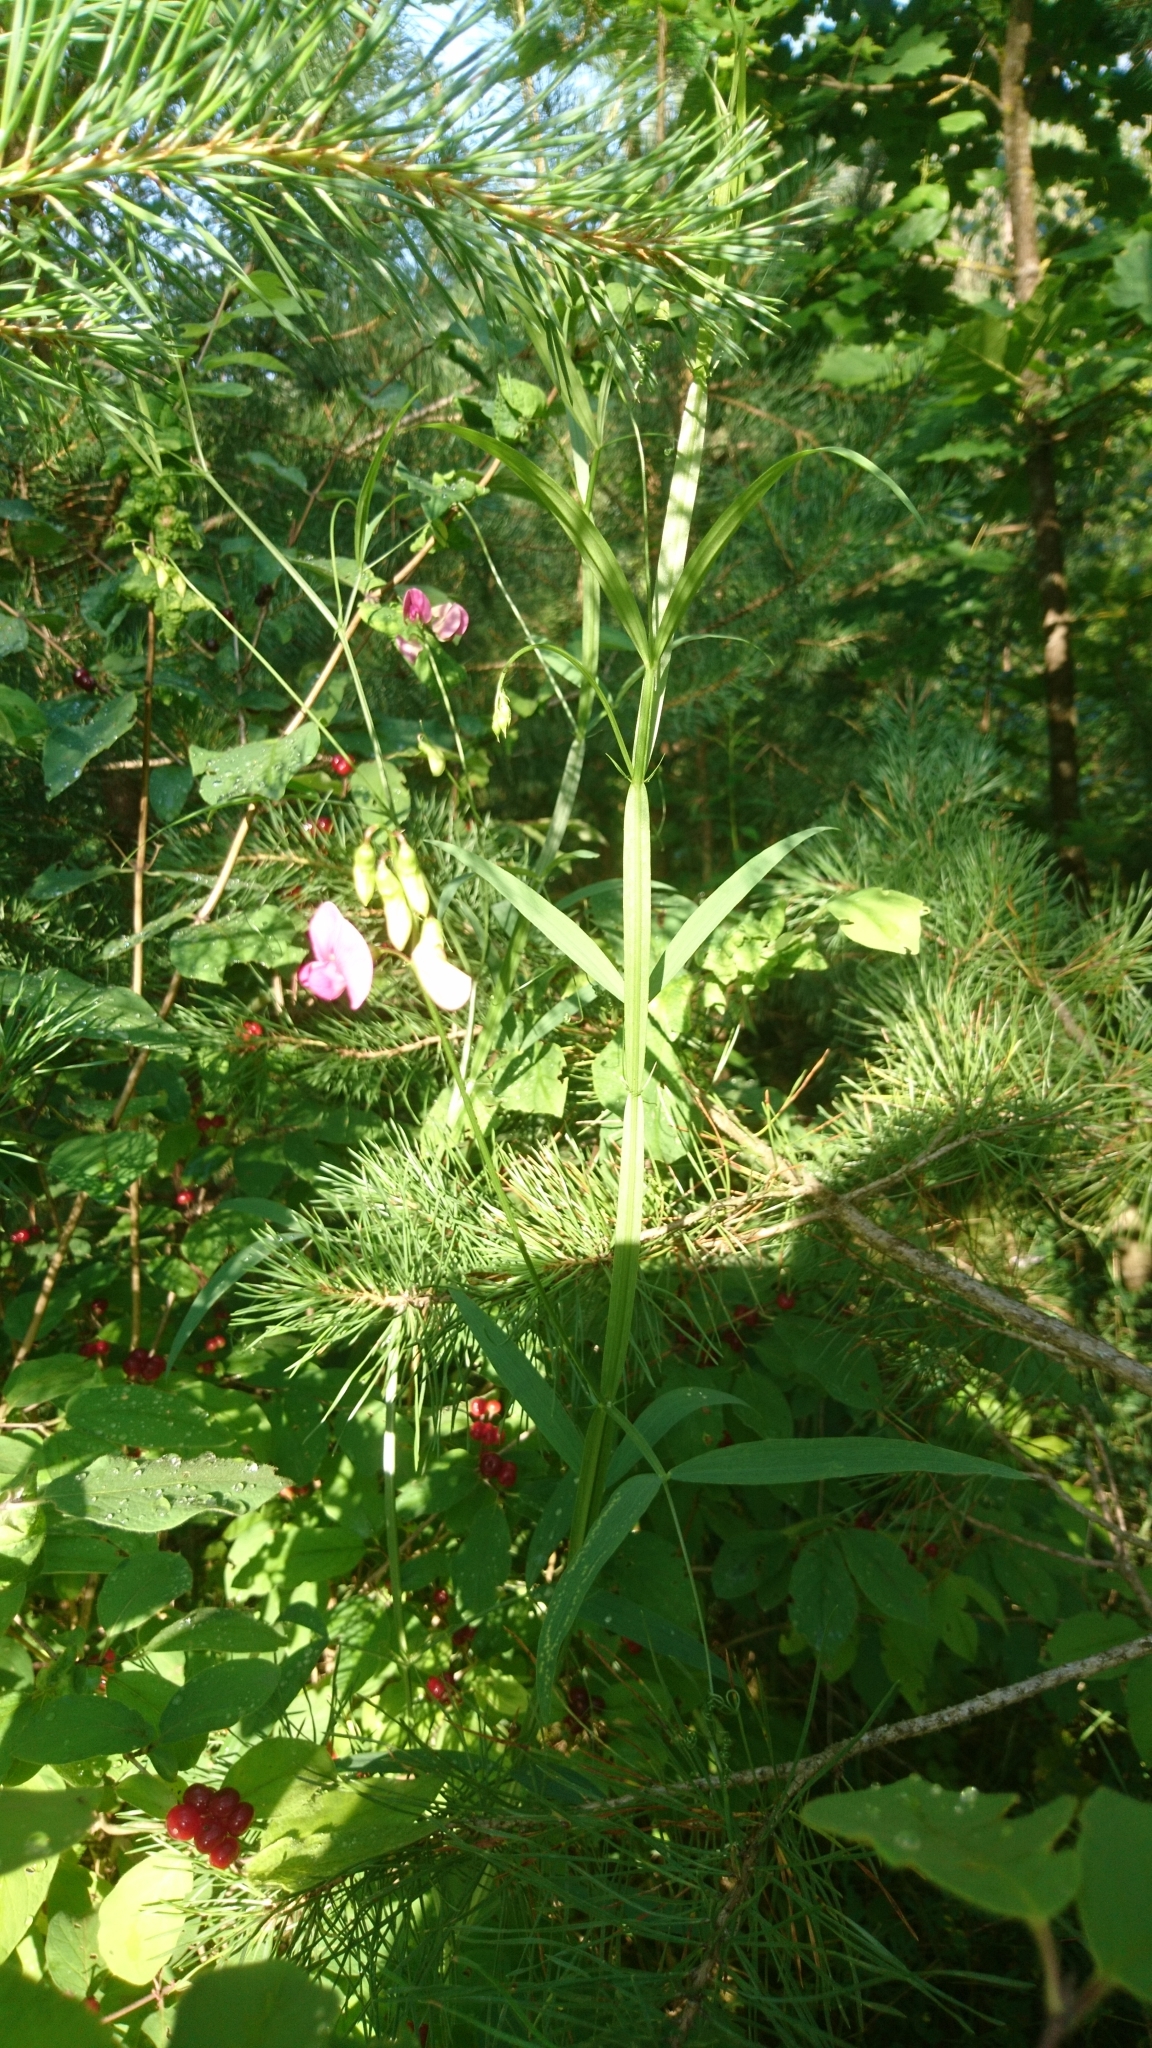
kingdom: Plantae
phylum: Tracheophyta
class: Magnoliopsida
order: Fabales
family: Fabaceae
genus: Lathyrus
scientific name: Lathyrus sylvestris
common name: Flat pea
